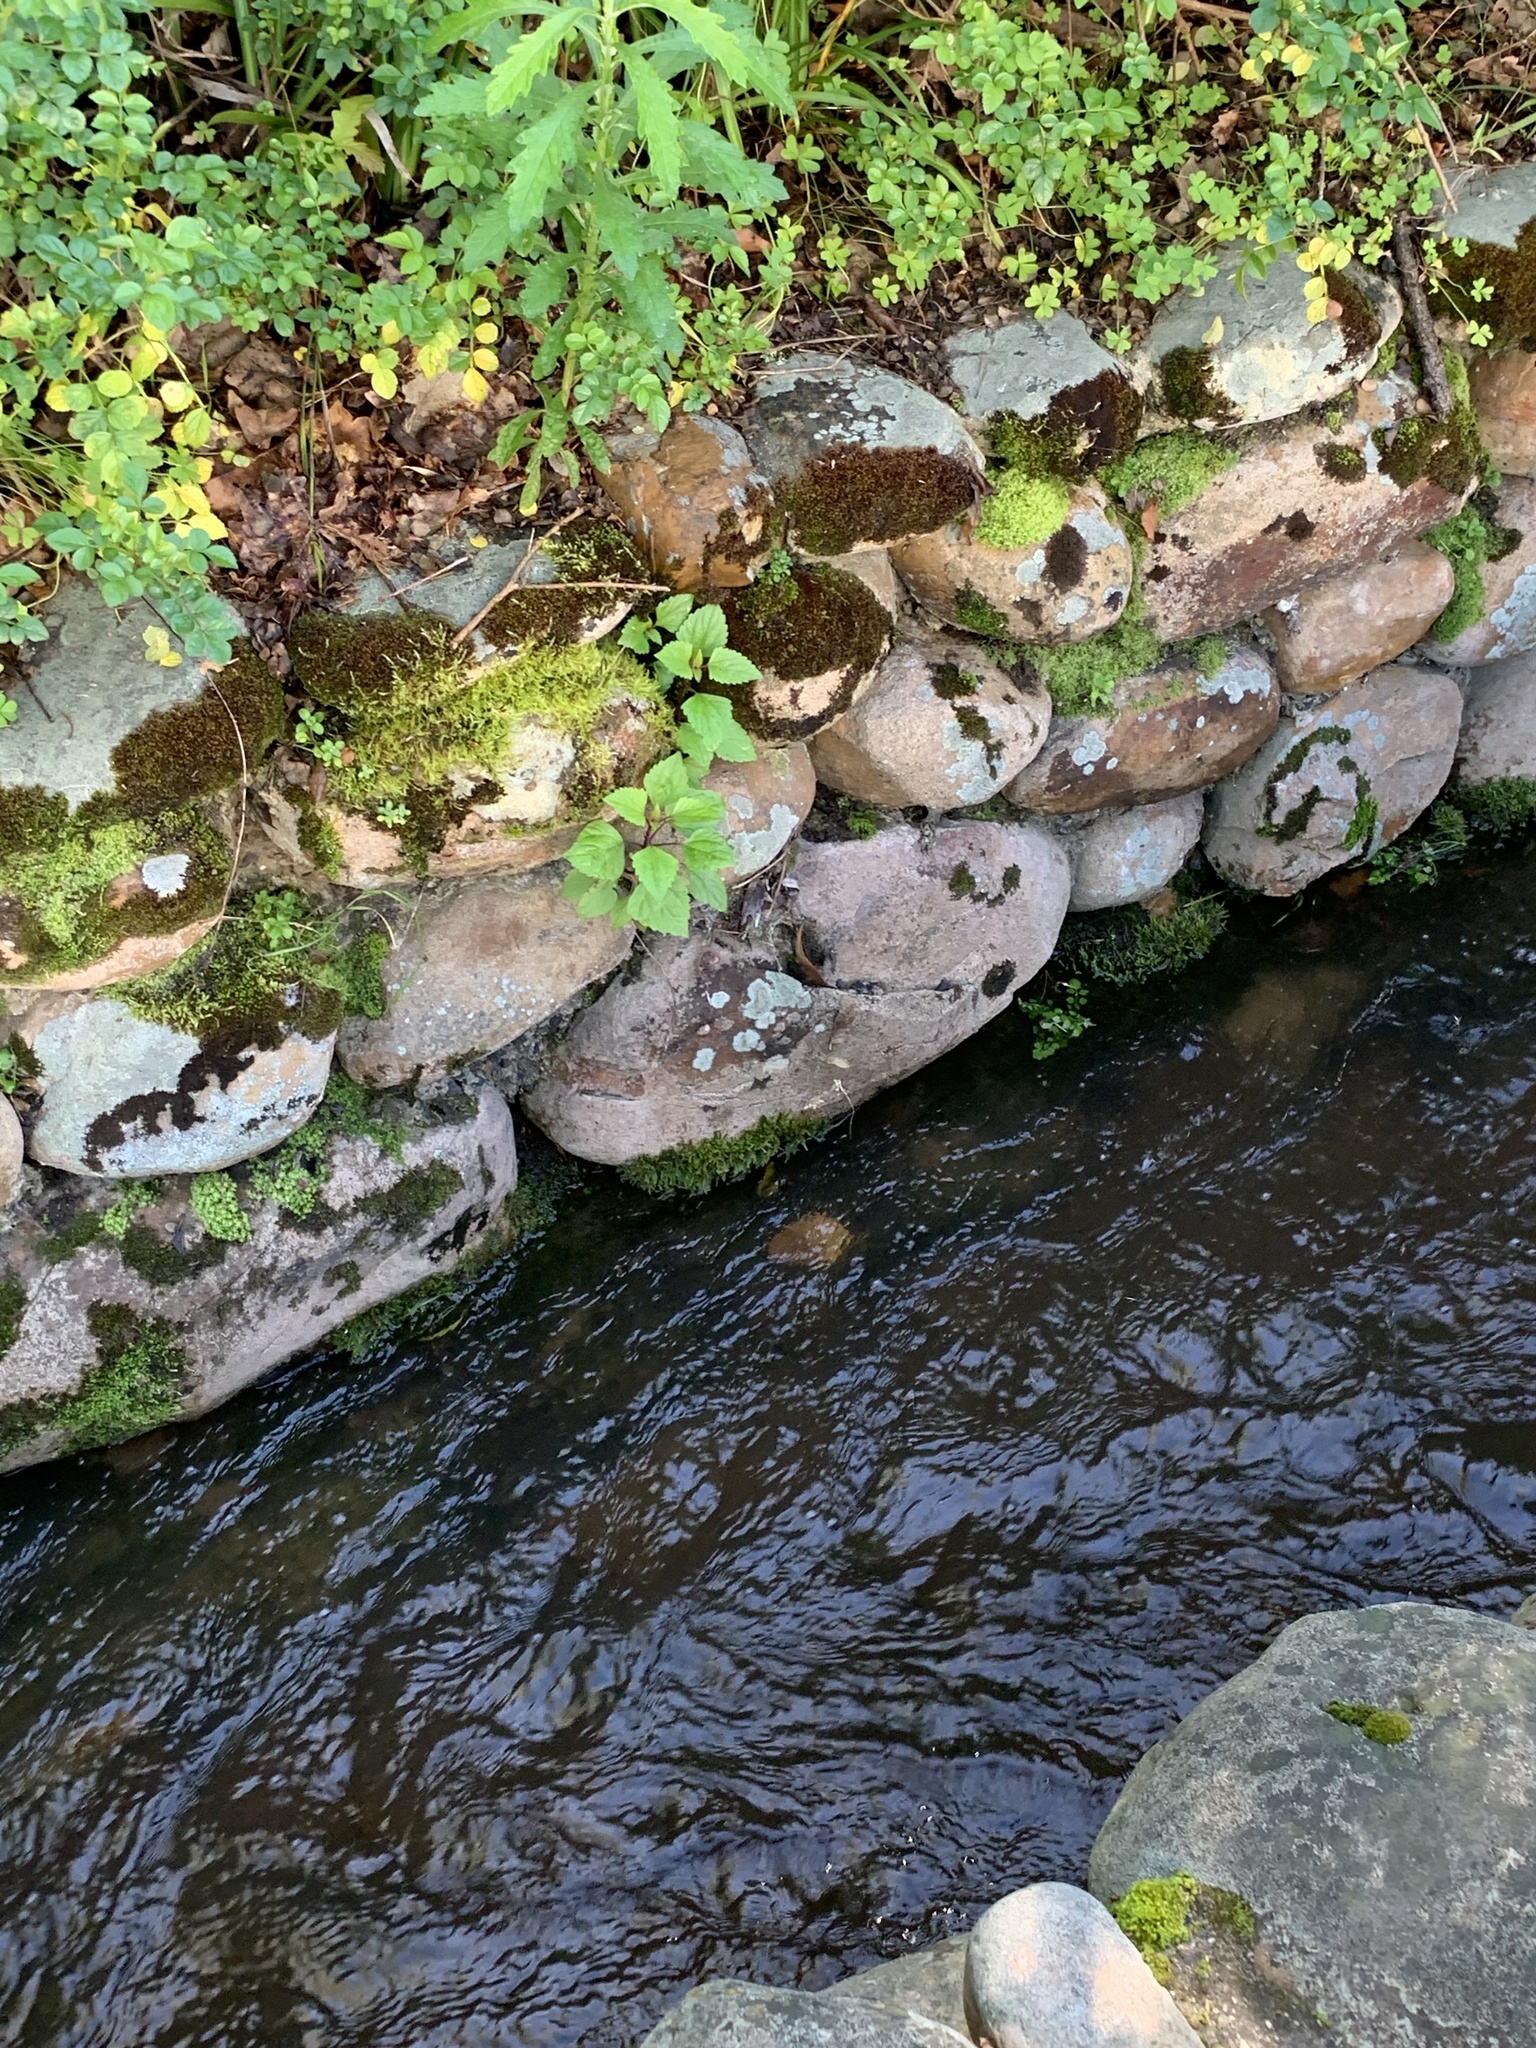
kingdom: Plantae
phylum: Tracheophyta
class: Magnoliopsida
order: Asterales
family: Asteraceae
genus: Ageratina
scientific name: Ageratina adenophora
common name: Sticky snakeroot
